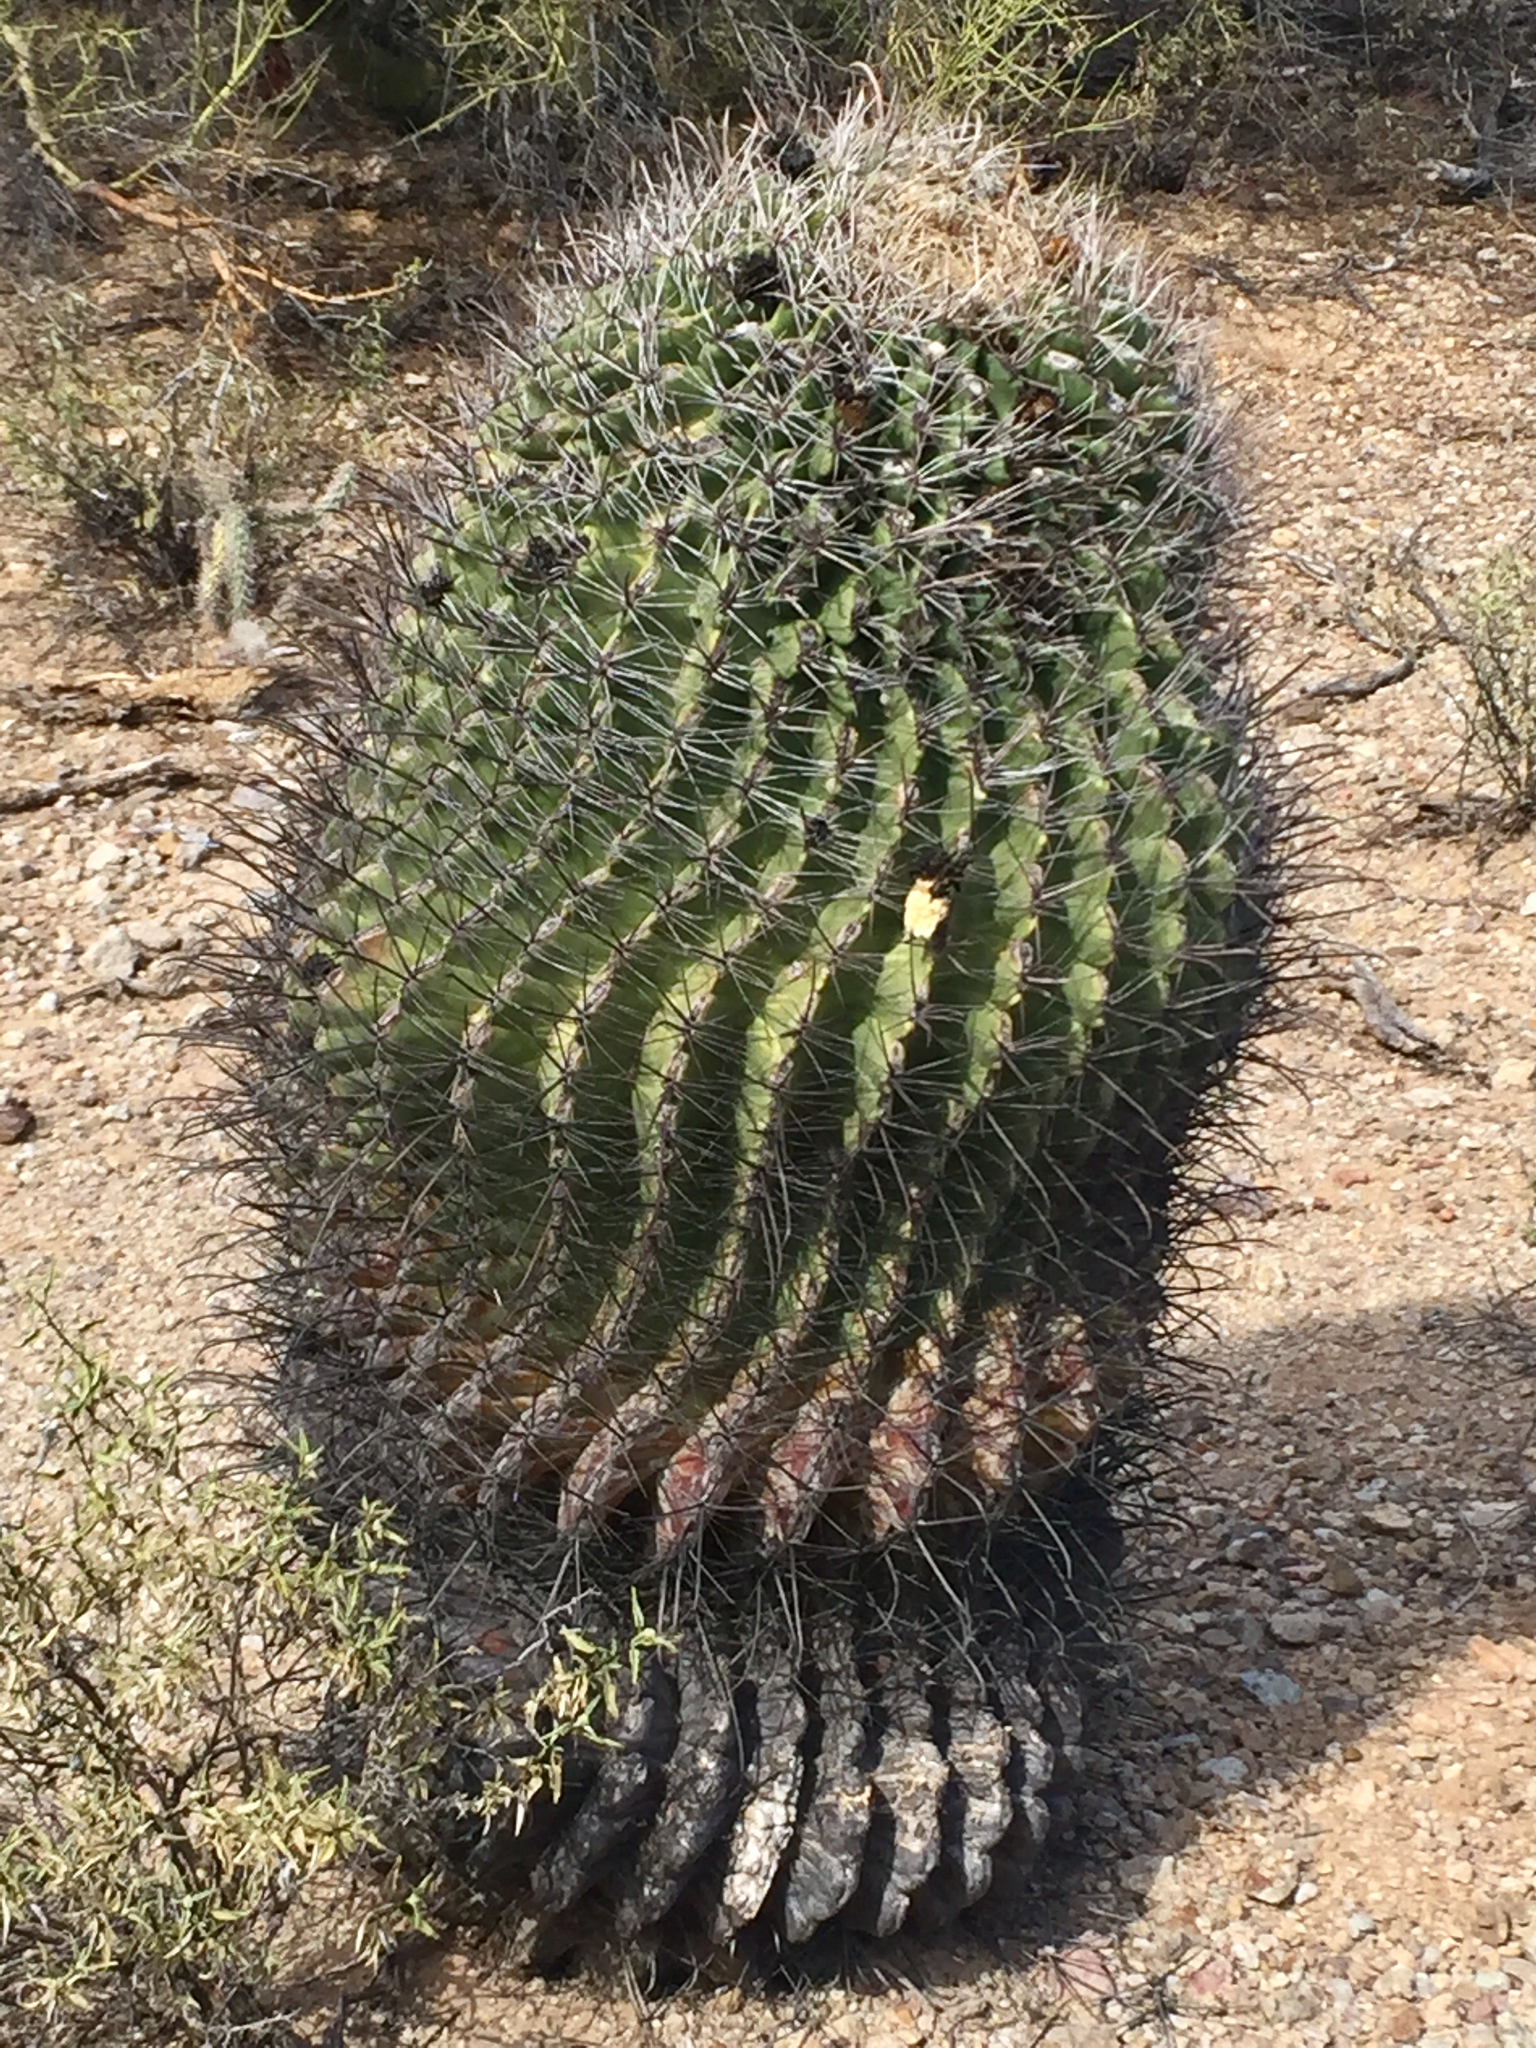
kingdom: Plantae
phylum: Tracheophyta
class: Magnoliopsida
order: Caryophyllales
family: Cactaceae
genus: Ferocactus
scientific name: Ferocactus wislizeni
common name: Candy barrel cactus
